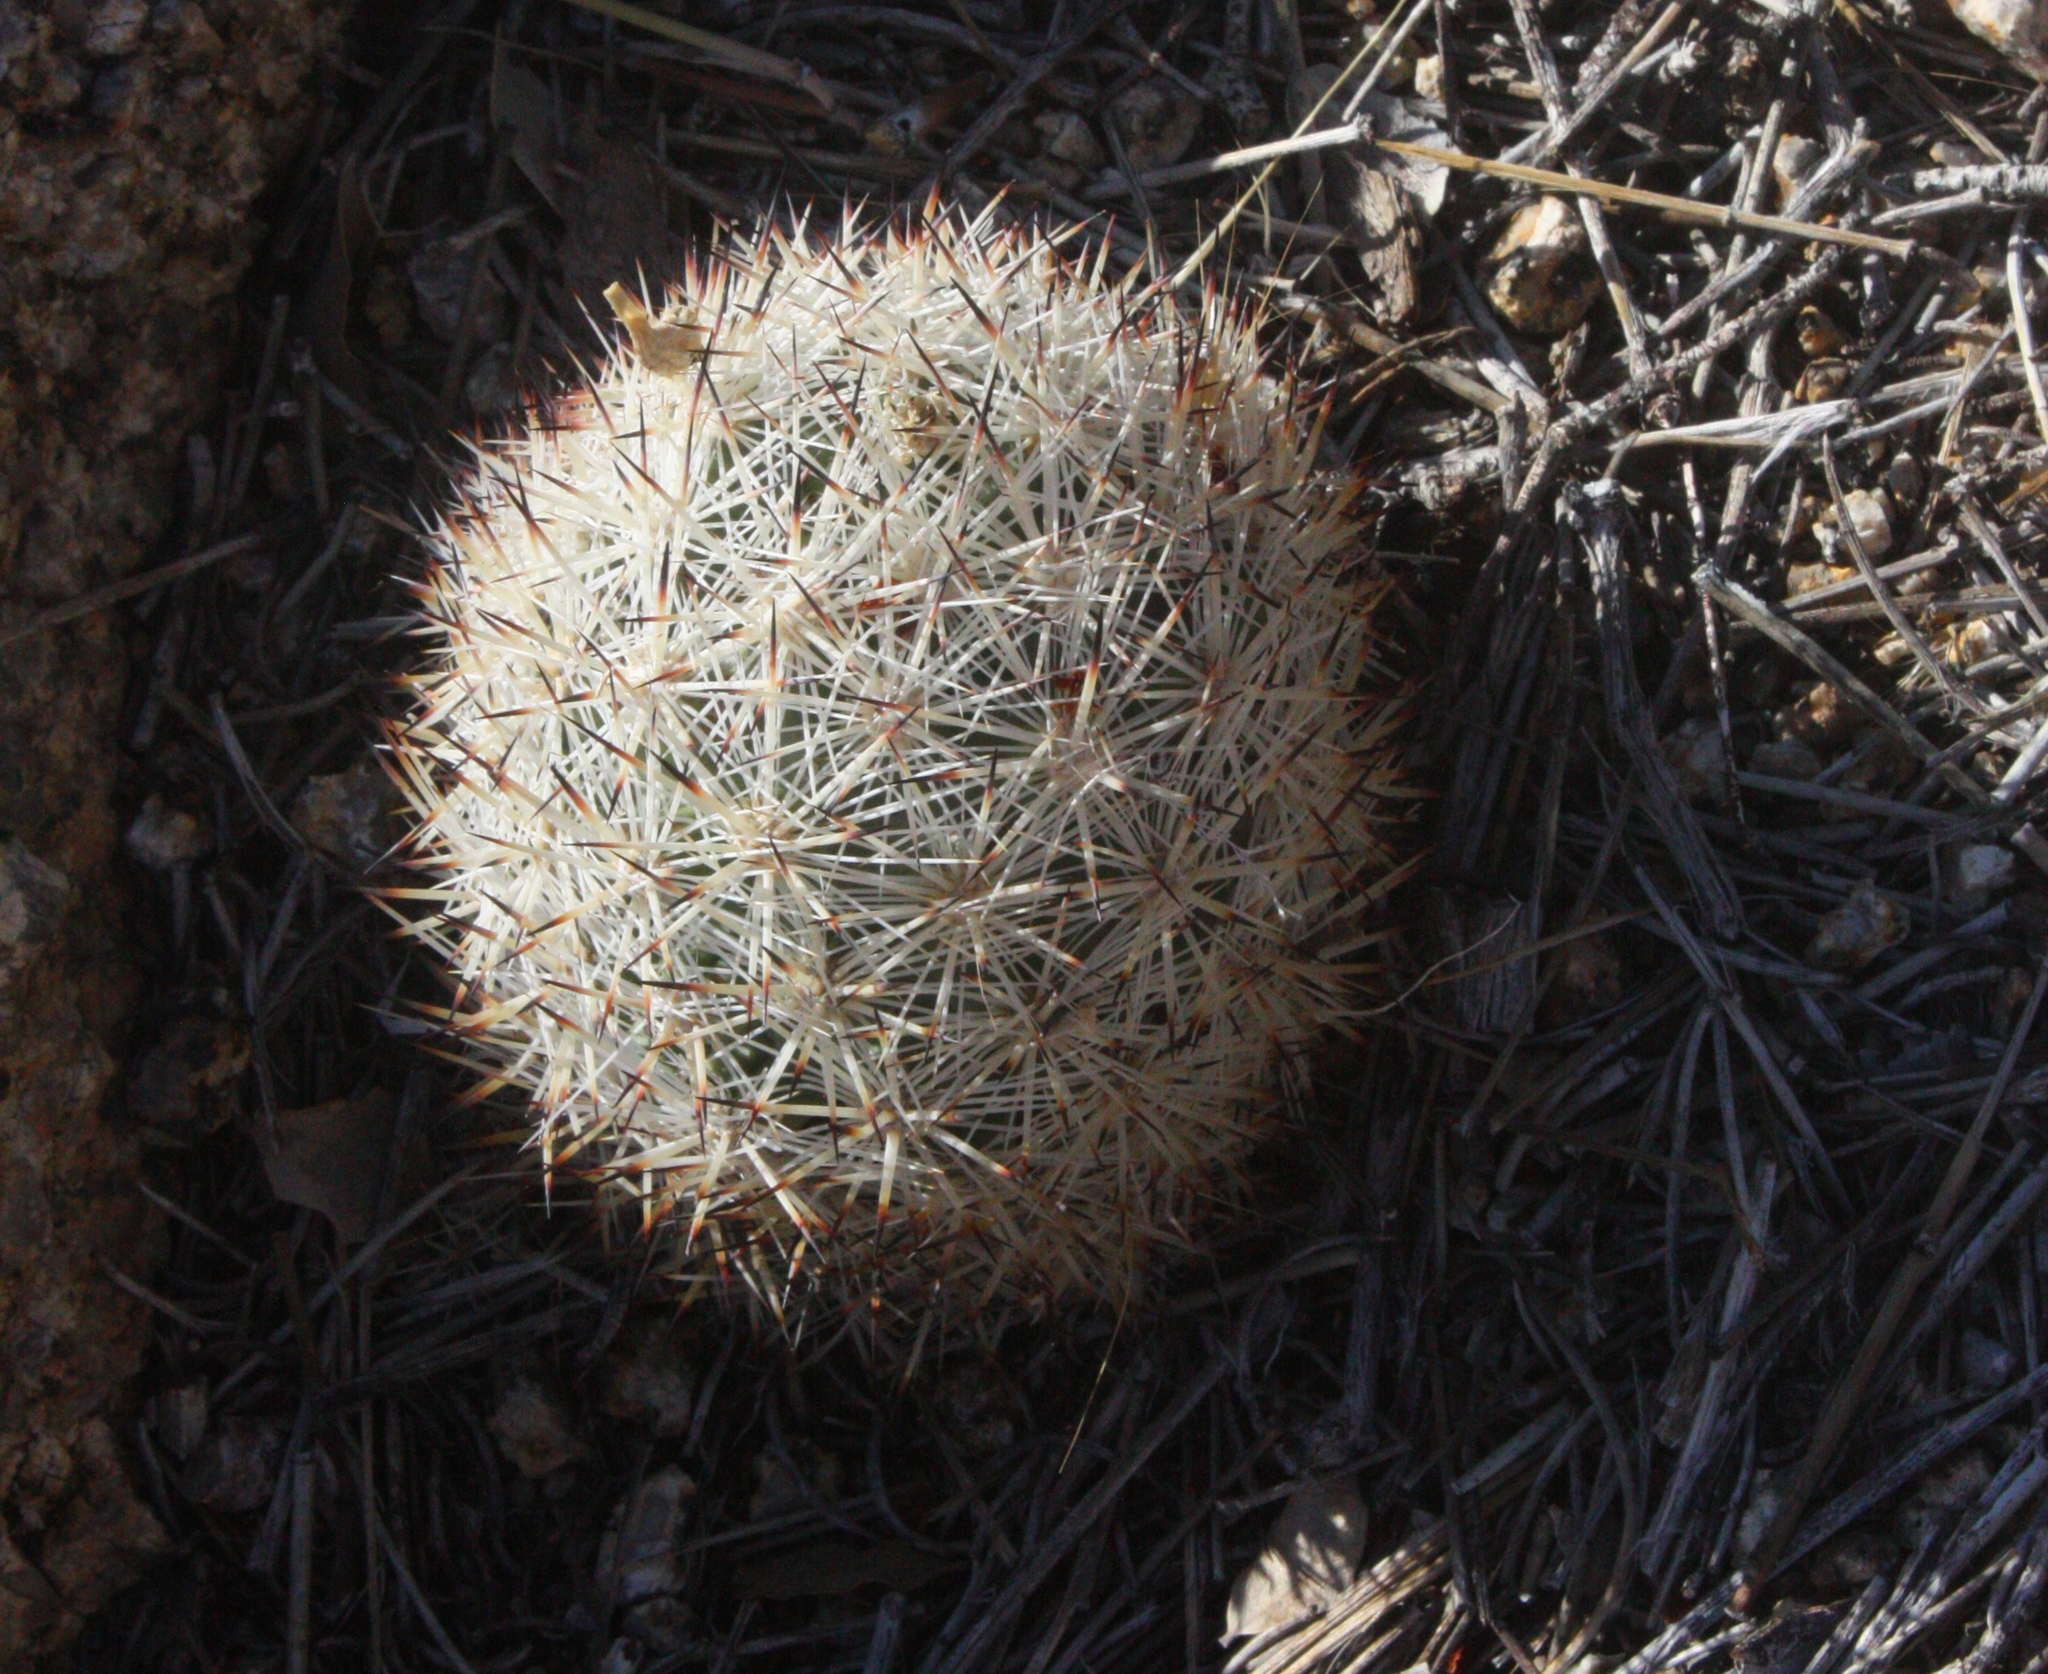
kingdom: Plantae
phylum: Tracheophyta
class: Magnoliopsida
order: Caryophyllales
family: Cactaceae
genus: Pelecyphora
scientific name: Pelecyphora alversonii
